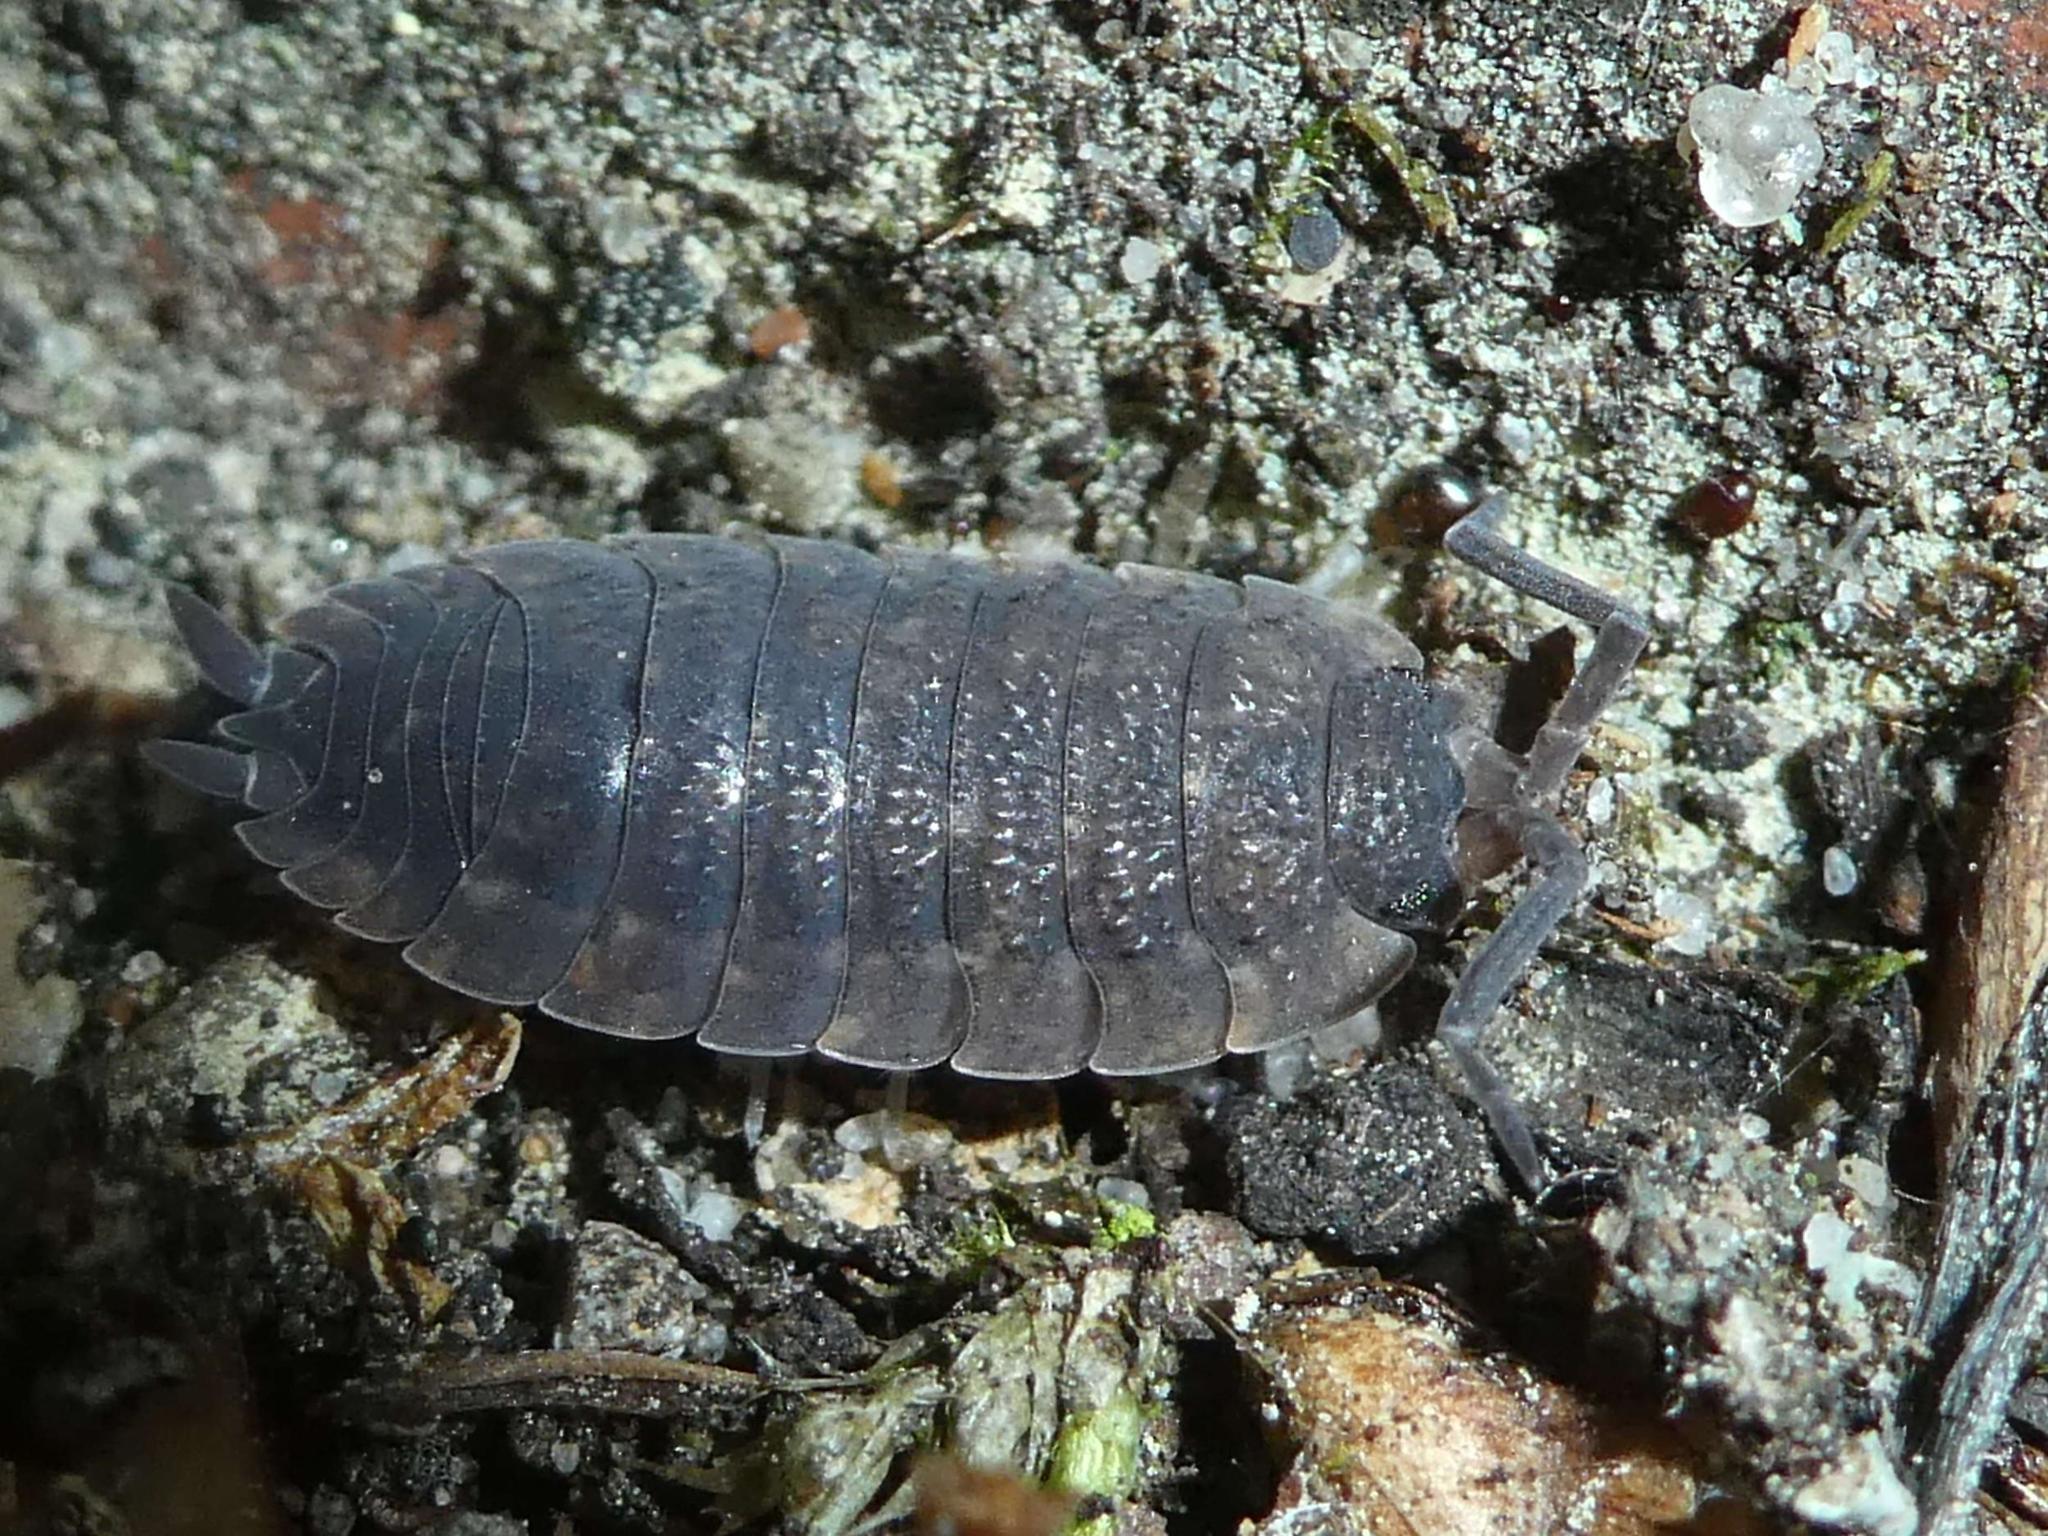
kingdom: Animalia
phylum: Arthropoda
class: Malacostraca
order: Isopoda
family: Porcellionidae
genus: Porcellio
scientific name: Porcellio scaber
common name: Common rough woodlouse
